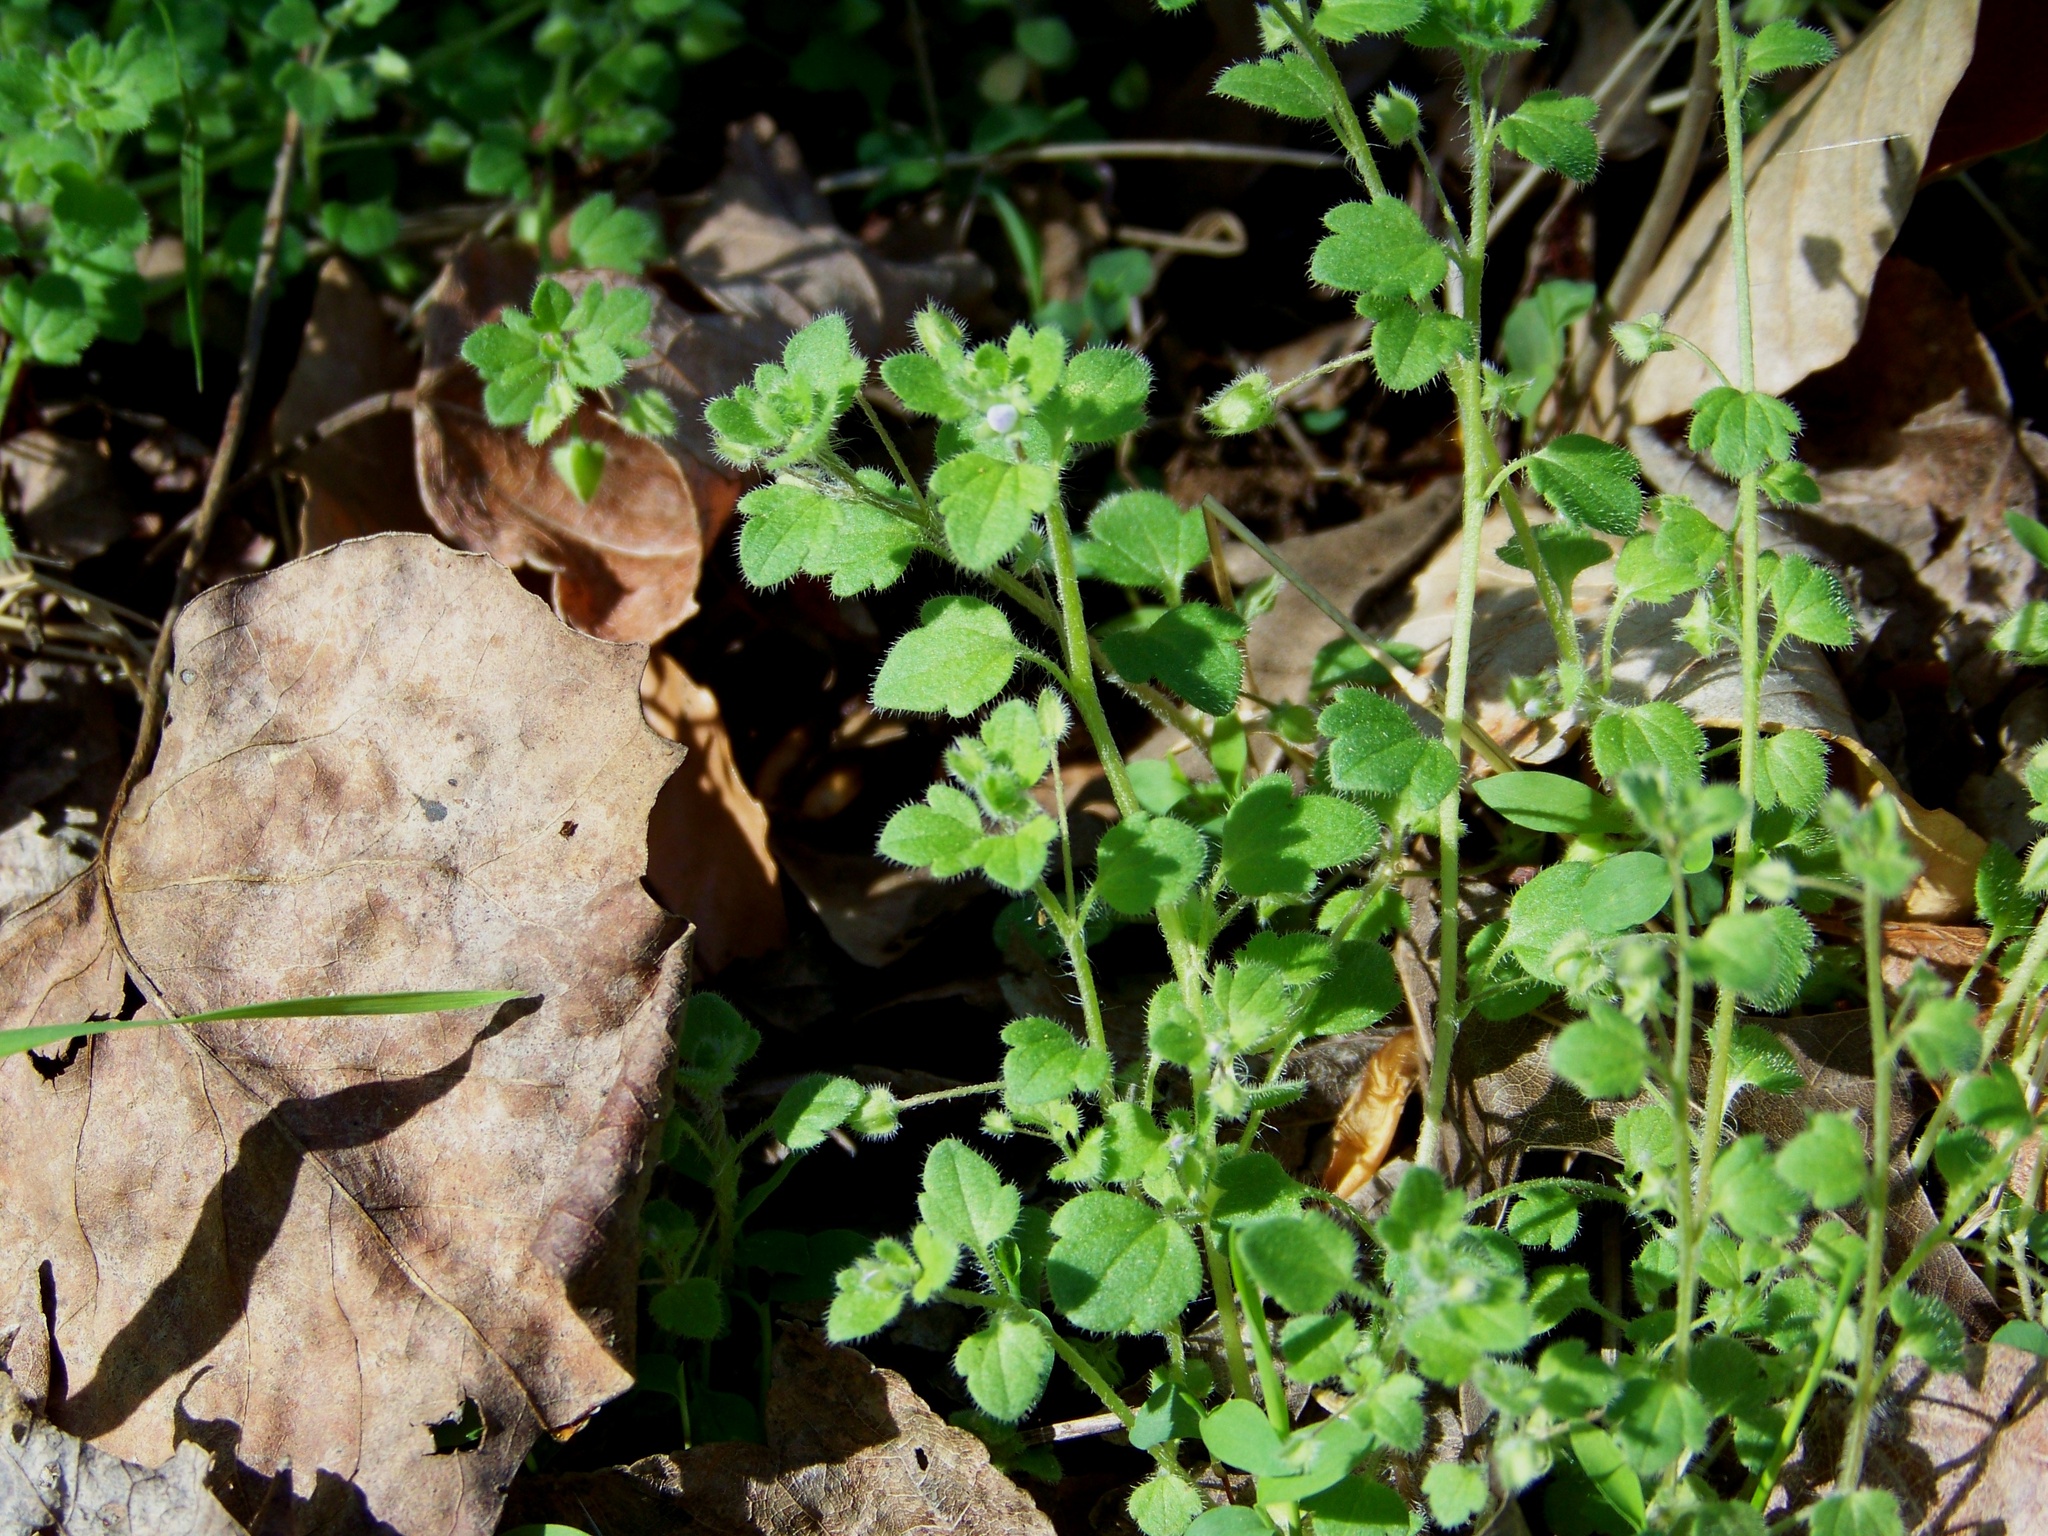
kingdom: Plantae
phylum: Tracheophyta
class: Magnoliopsida
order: Lamiales
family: Plantaginaceae
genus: Veronica
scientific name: Veronica hederifolia
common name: Ivy-leaved speedwell
